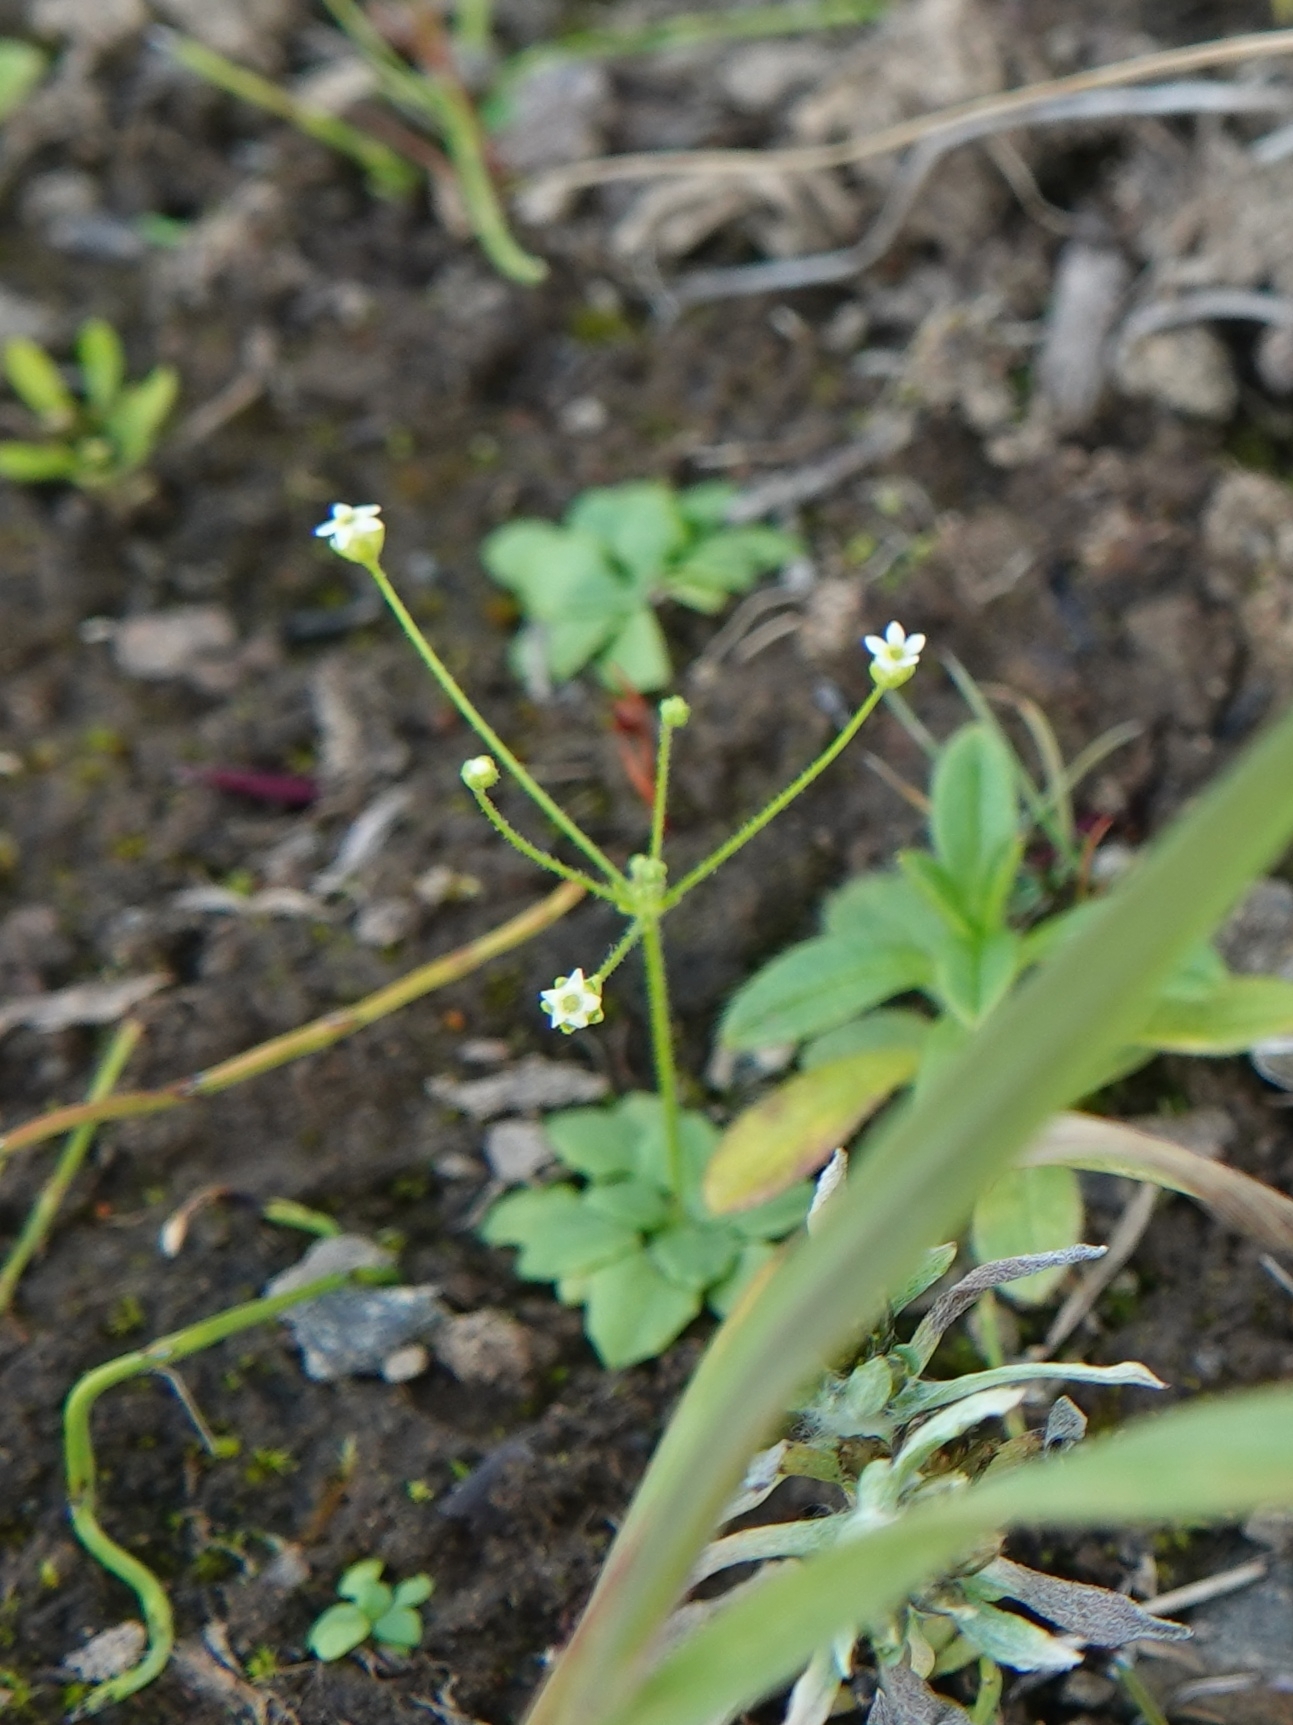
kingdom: Plantae
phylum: Tracheophyta
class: Magnoliopsida
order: Ericales
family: Primulaceae
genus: Androsace
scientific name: Androsace filiformis
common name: Filiform rock jasmine
